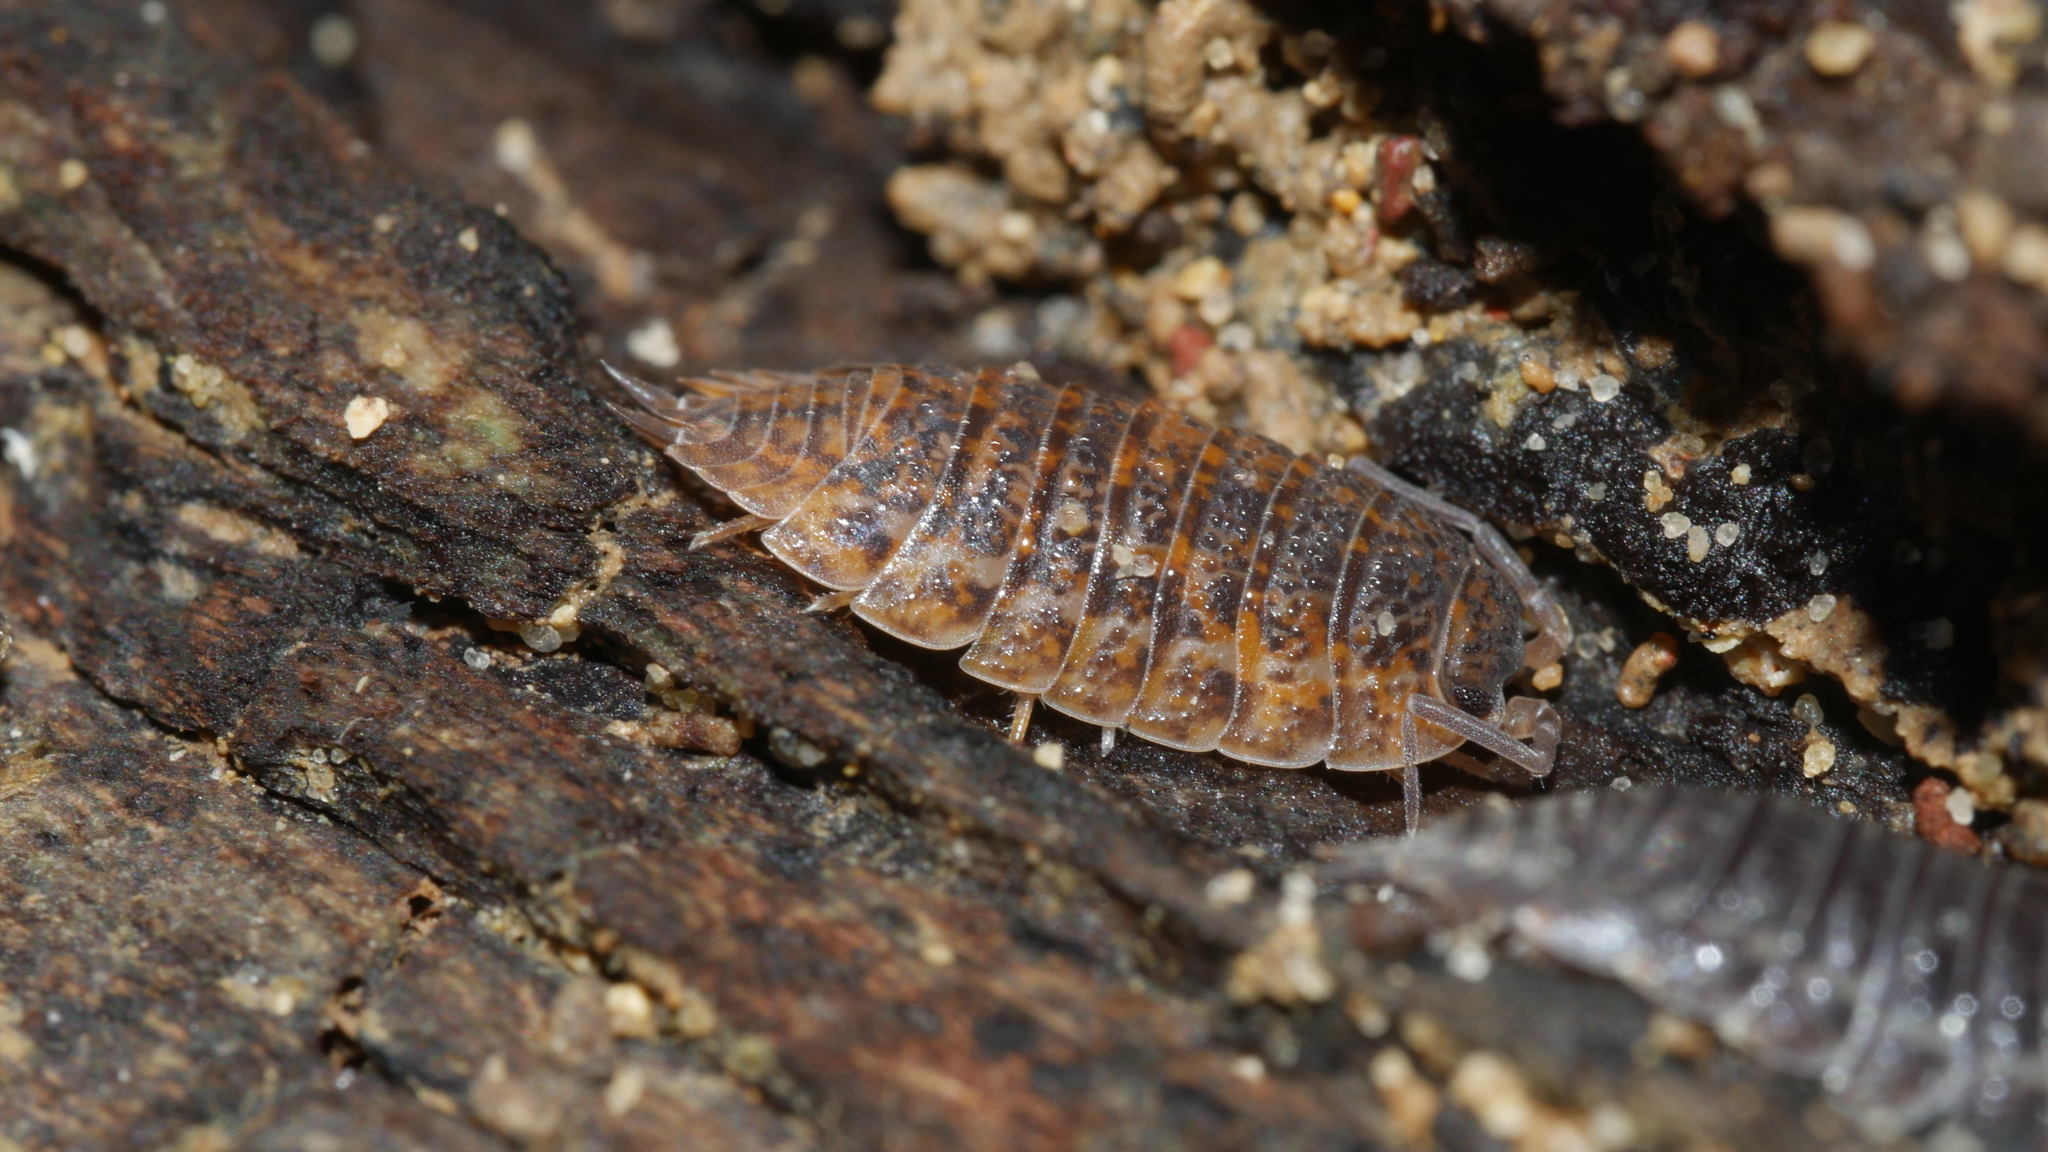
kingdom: Animalia
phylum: Arthropoda
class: Malacostraca
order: Isopoda
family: Trachelipodidae
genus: Trachelipus
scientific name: Trachelipus rathkii
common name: Isopod
